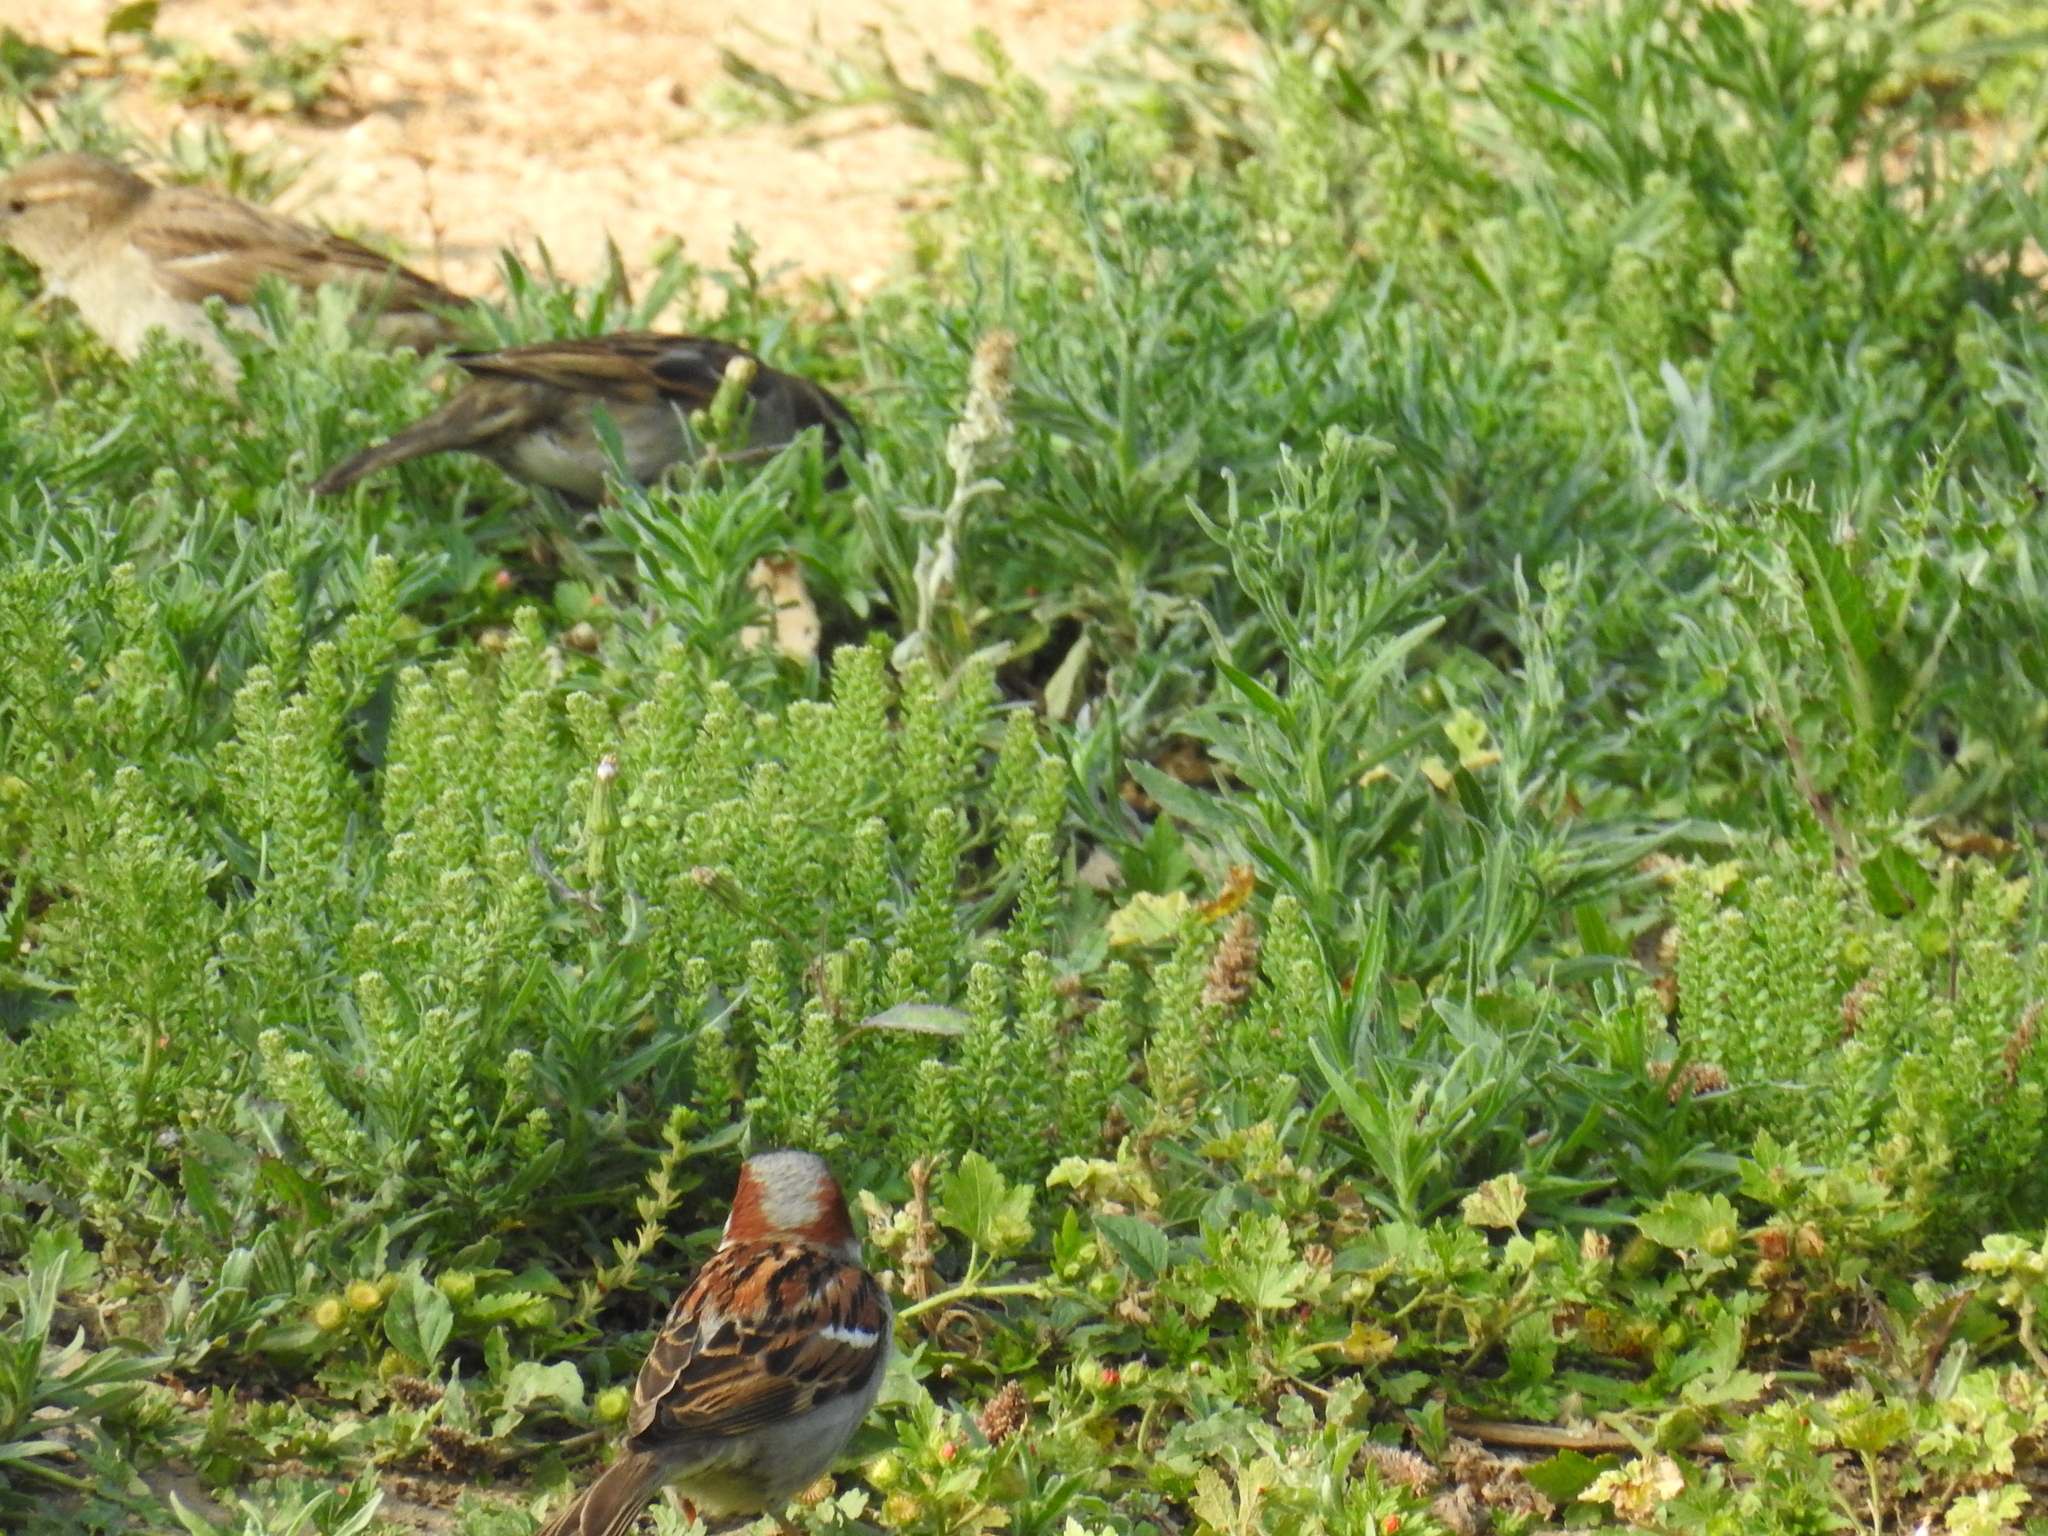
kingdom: Animalia
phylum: Chordata
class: Aves
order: Passeriformes
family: Passeridae
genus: Passer
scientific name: Passer domesticus
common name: House sparrow
